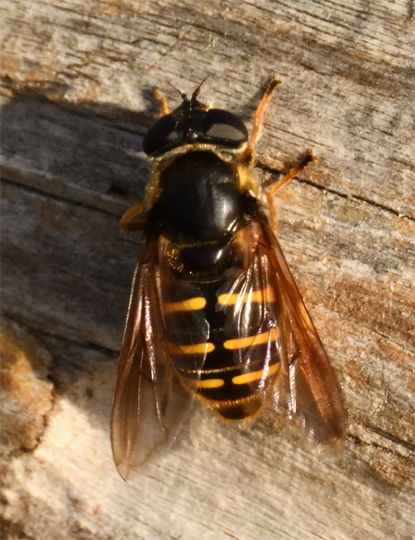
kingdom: Animalia
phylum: Arthropoda
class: Insecta
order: Diptera
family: Syrphidae
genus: Sericomyia
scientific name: Sericomyia chalcopyga
